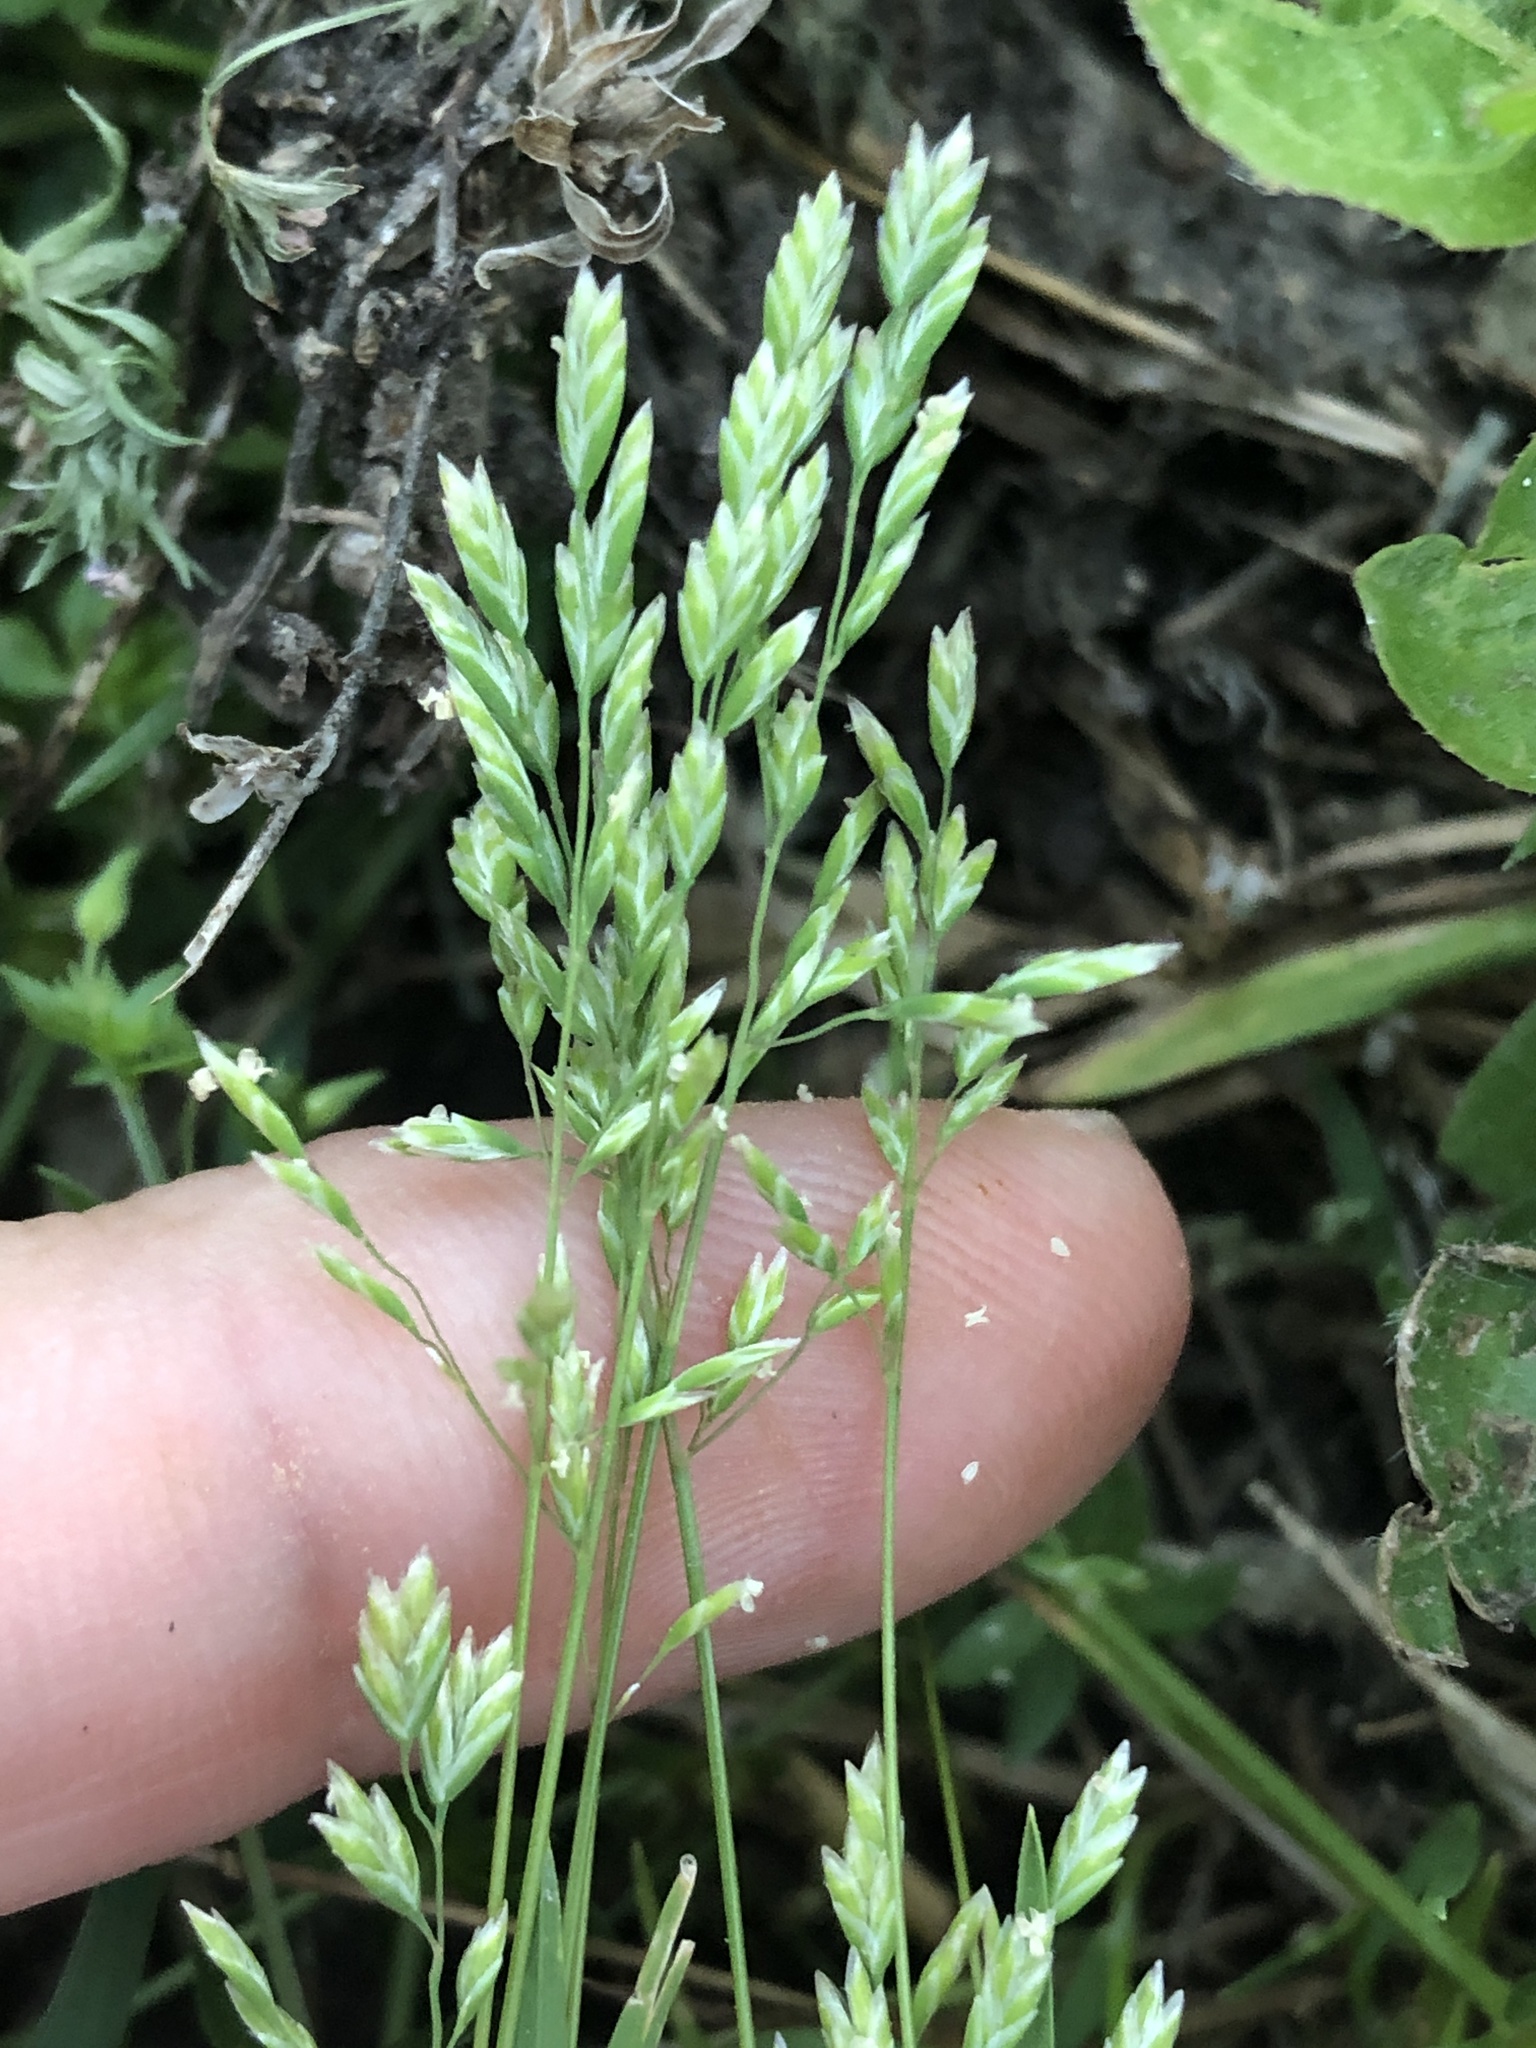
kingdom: Plantae
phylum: Tracheophyta
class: Liliopsida
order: Poales
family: Poaceae
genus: Poa
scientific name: Poa annua
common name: Annual bluegrass
